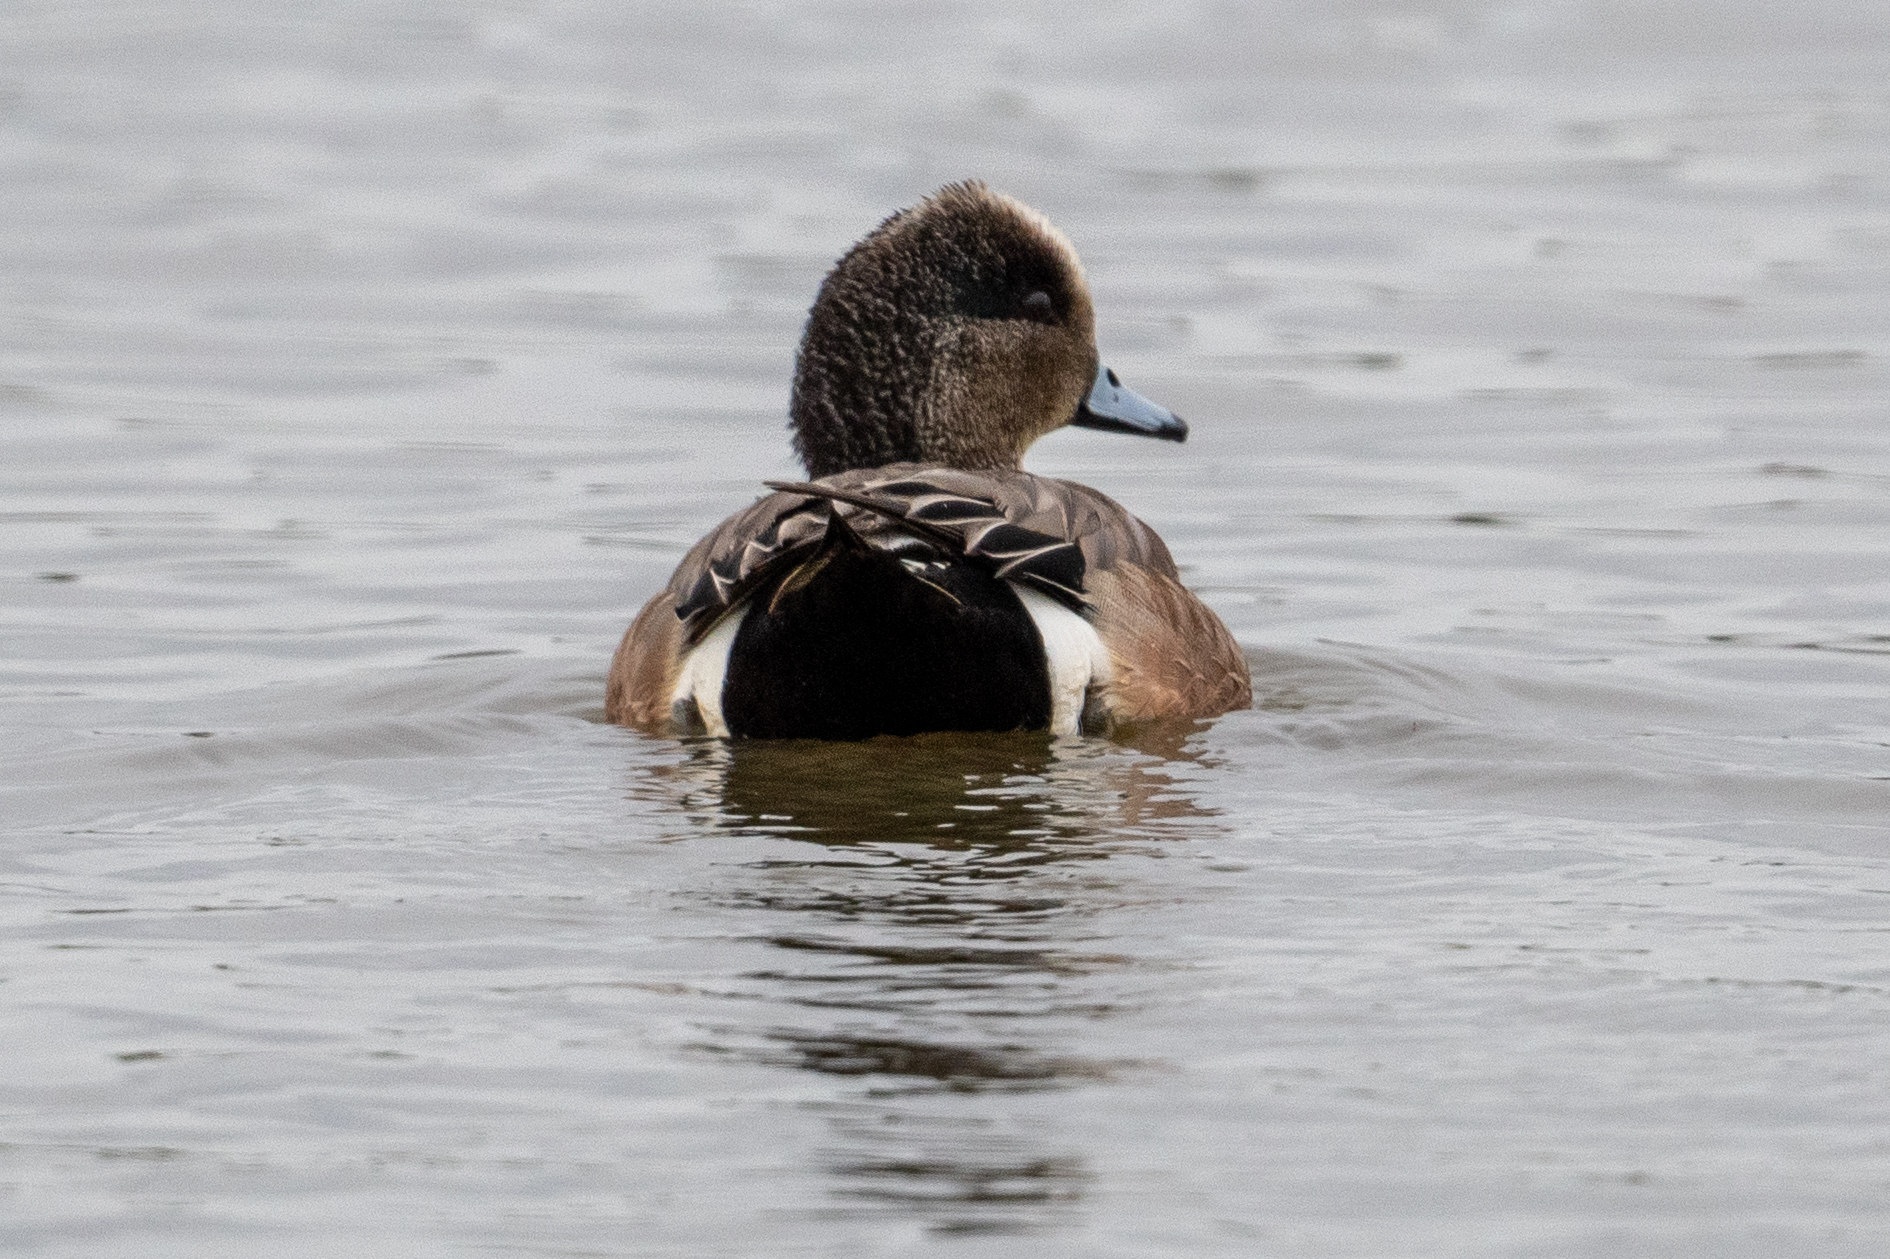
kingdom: Animalia
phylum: Chordata
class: Aves
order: Anseriformes
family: Anatidae
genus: Mareca
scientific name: Mareca americana
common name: American wigeon
